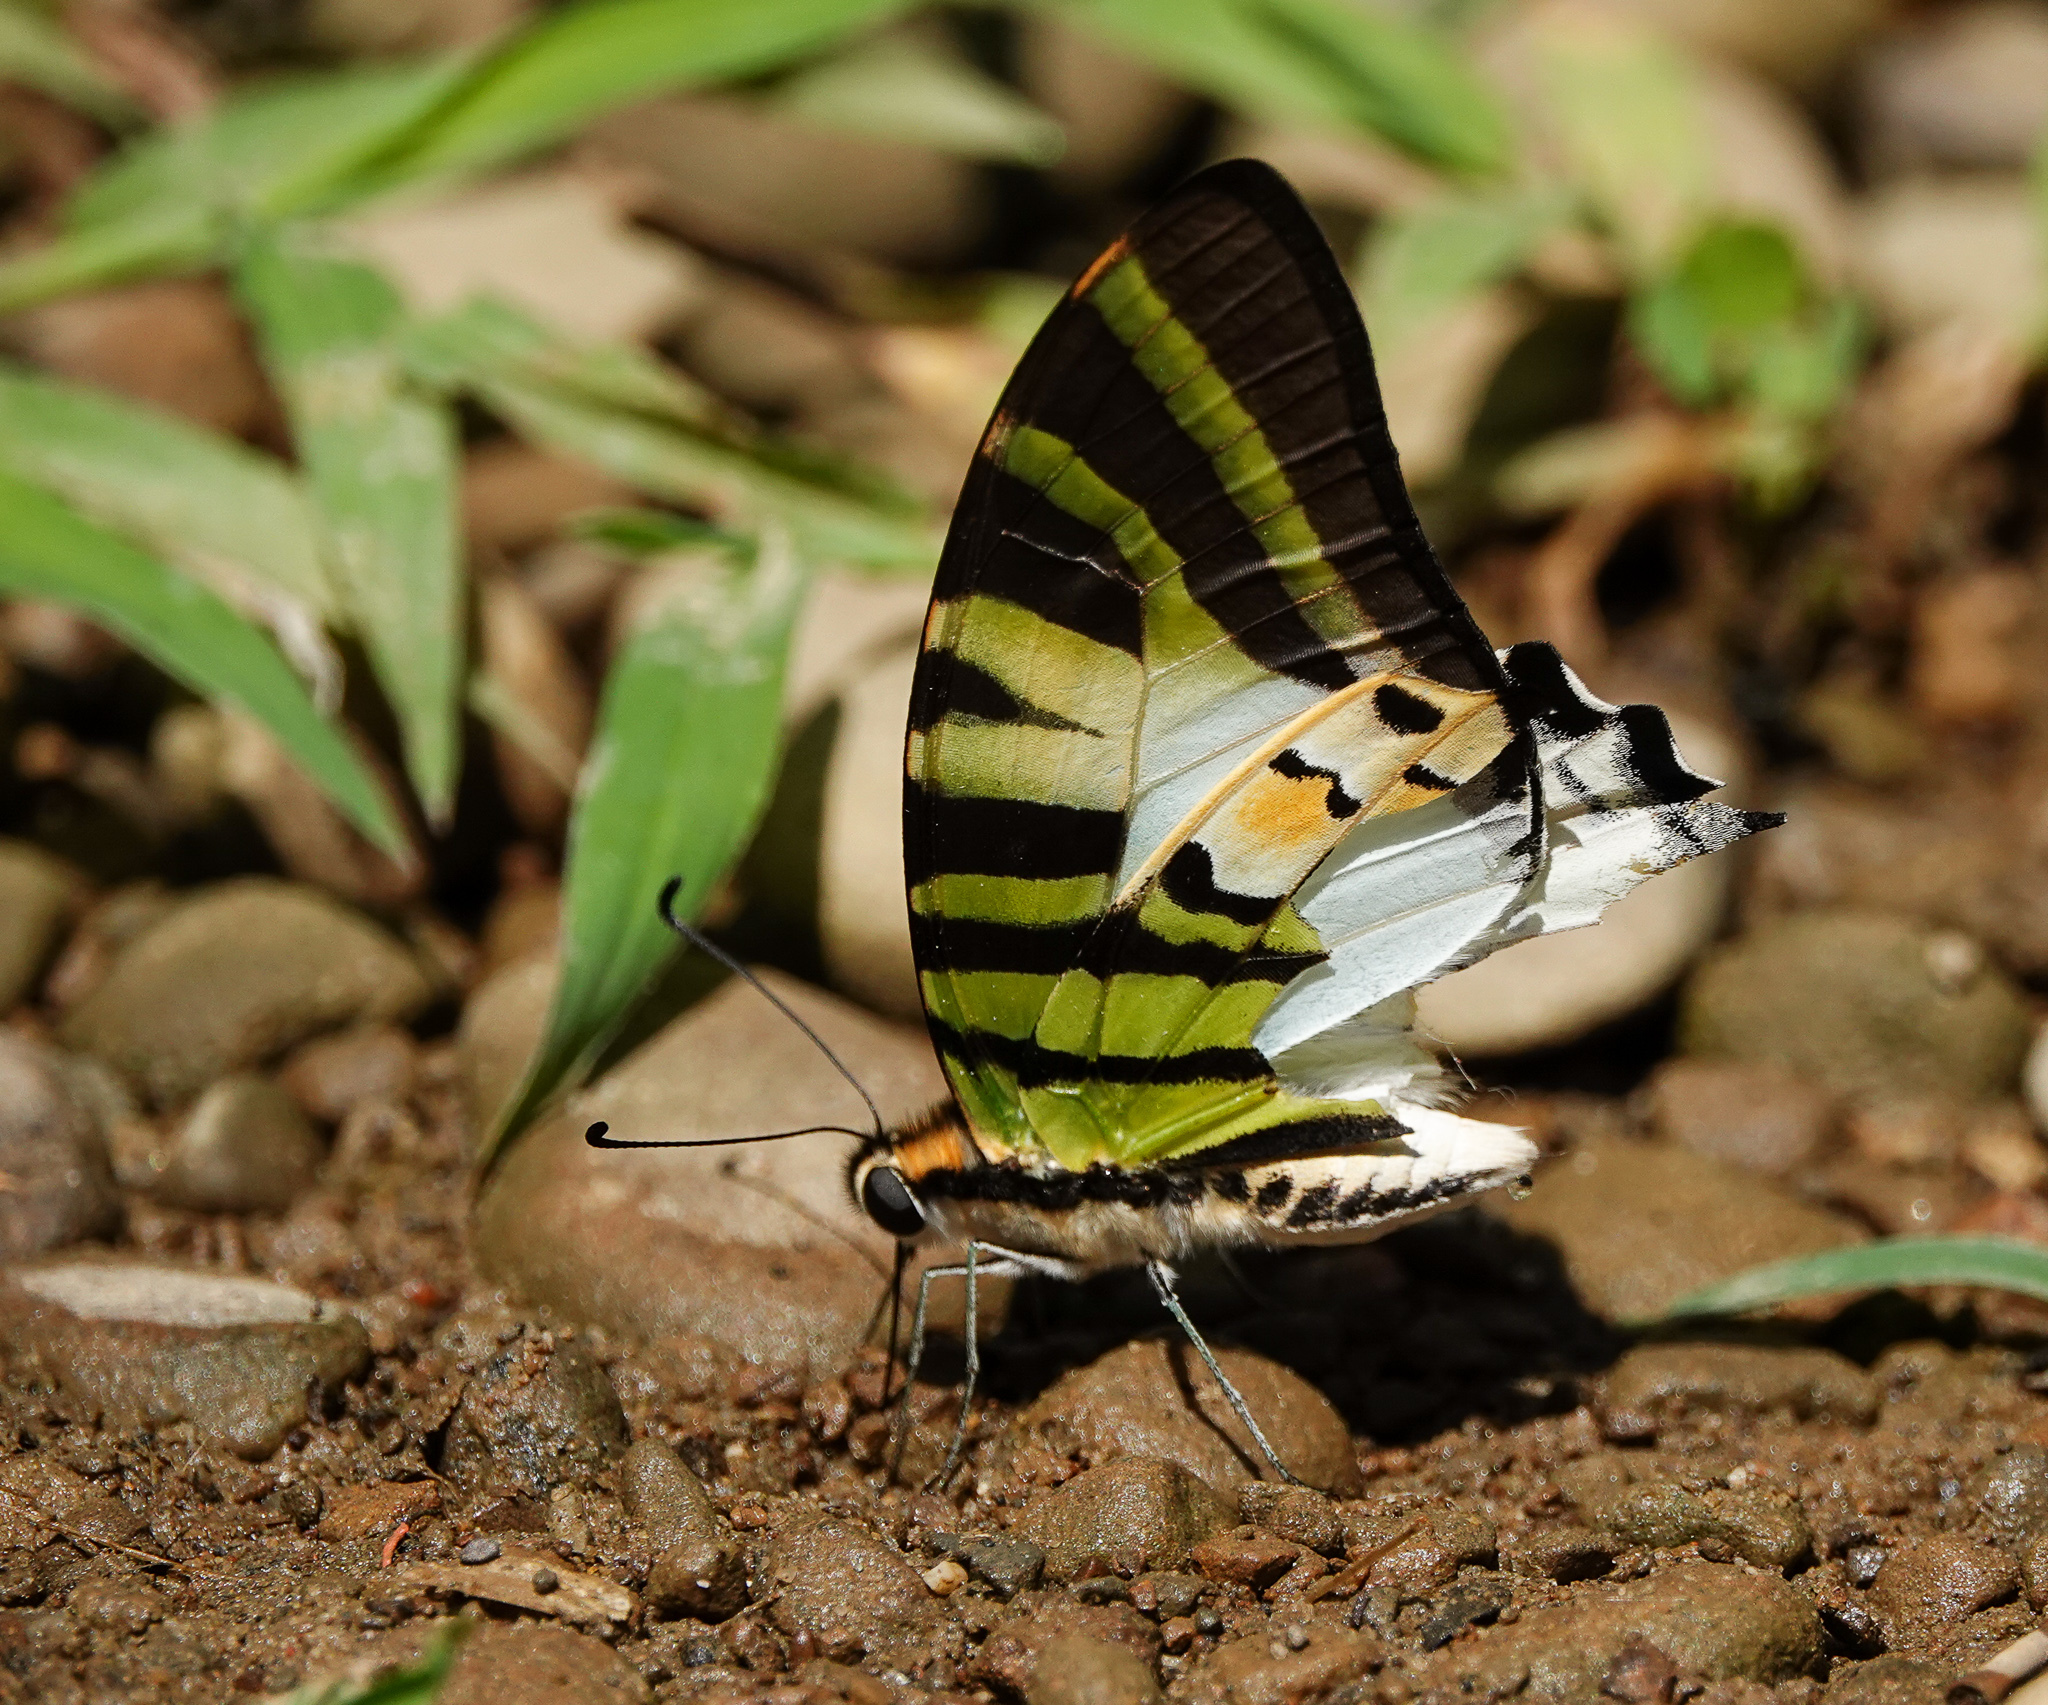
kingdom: Animalia
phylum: Arthropoda
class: Insecta
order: Lepidoptera
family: Papilionidae
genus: Graphium
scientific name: Graphium antiphates
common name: Fivebar swordtail
